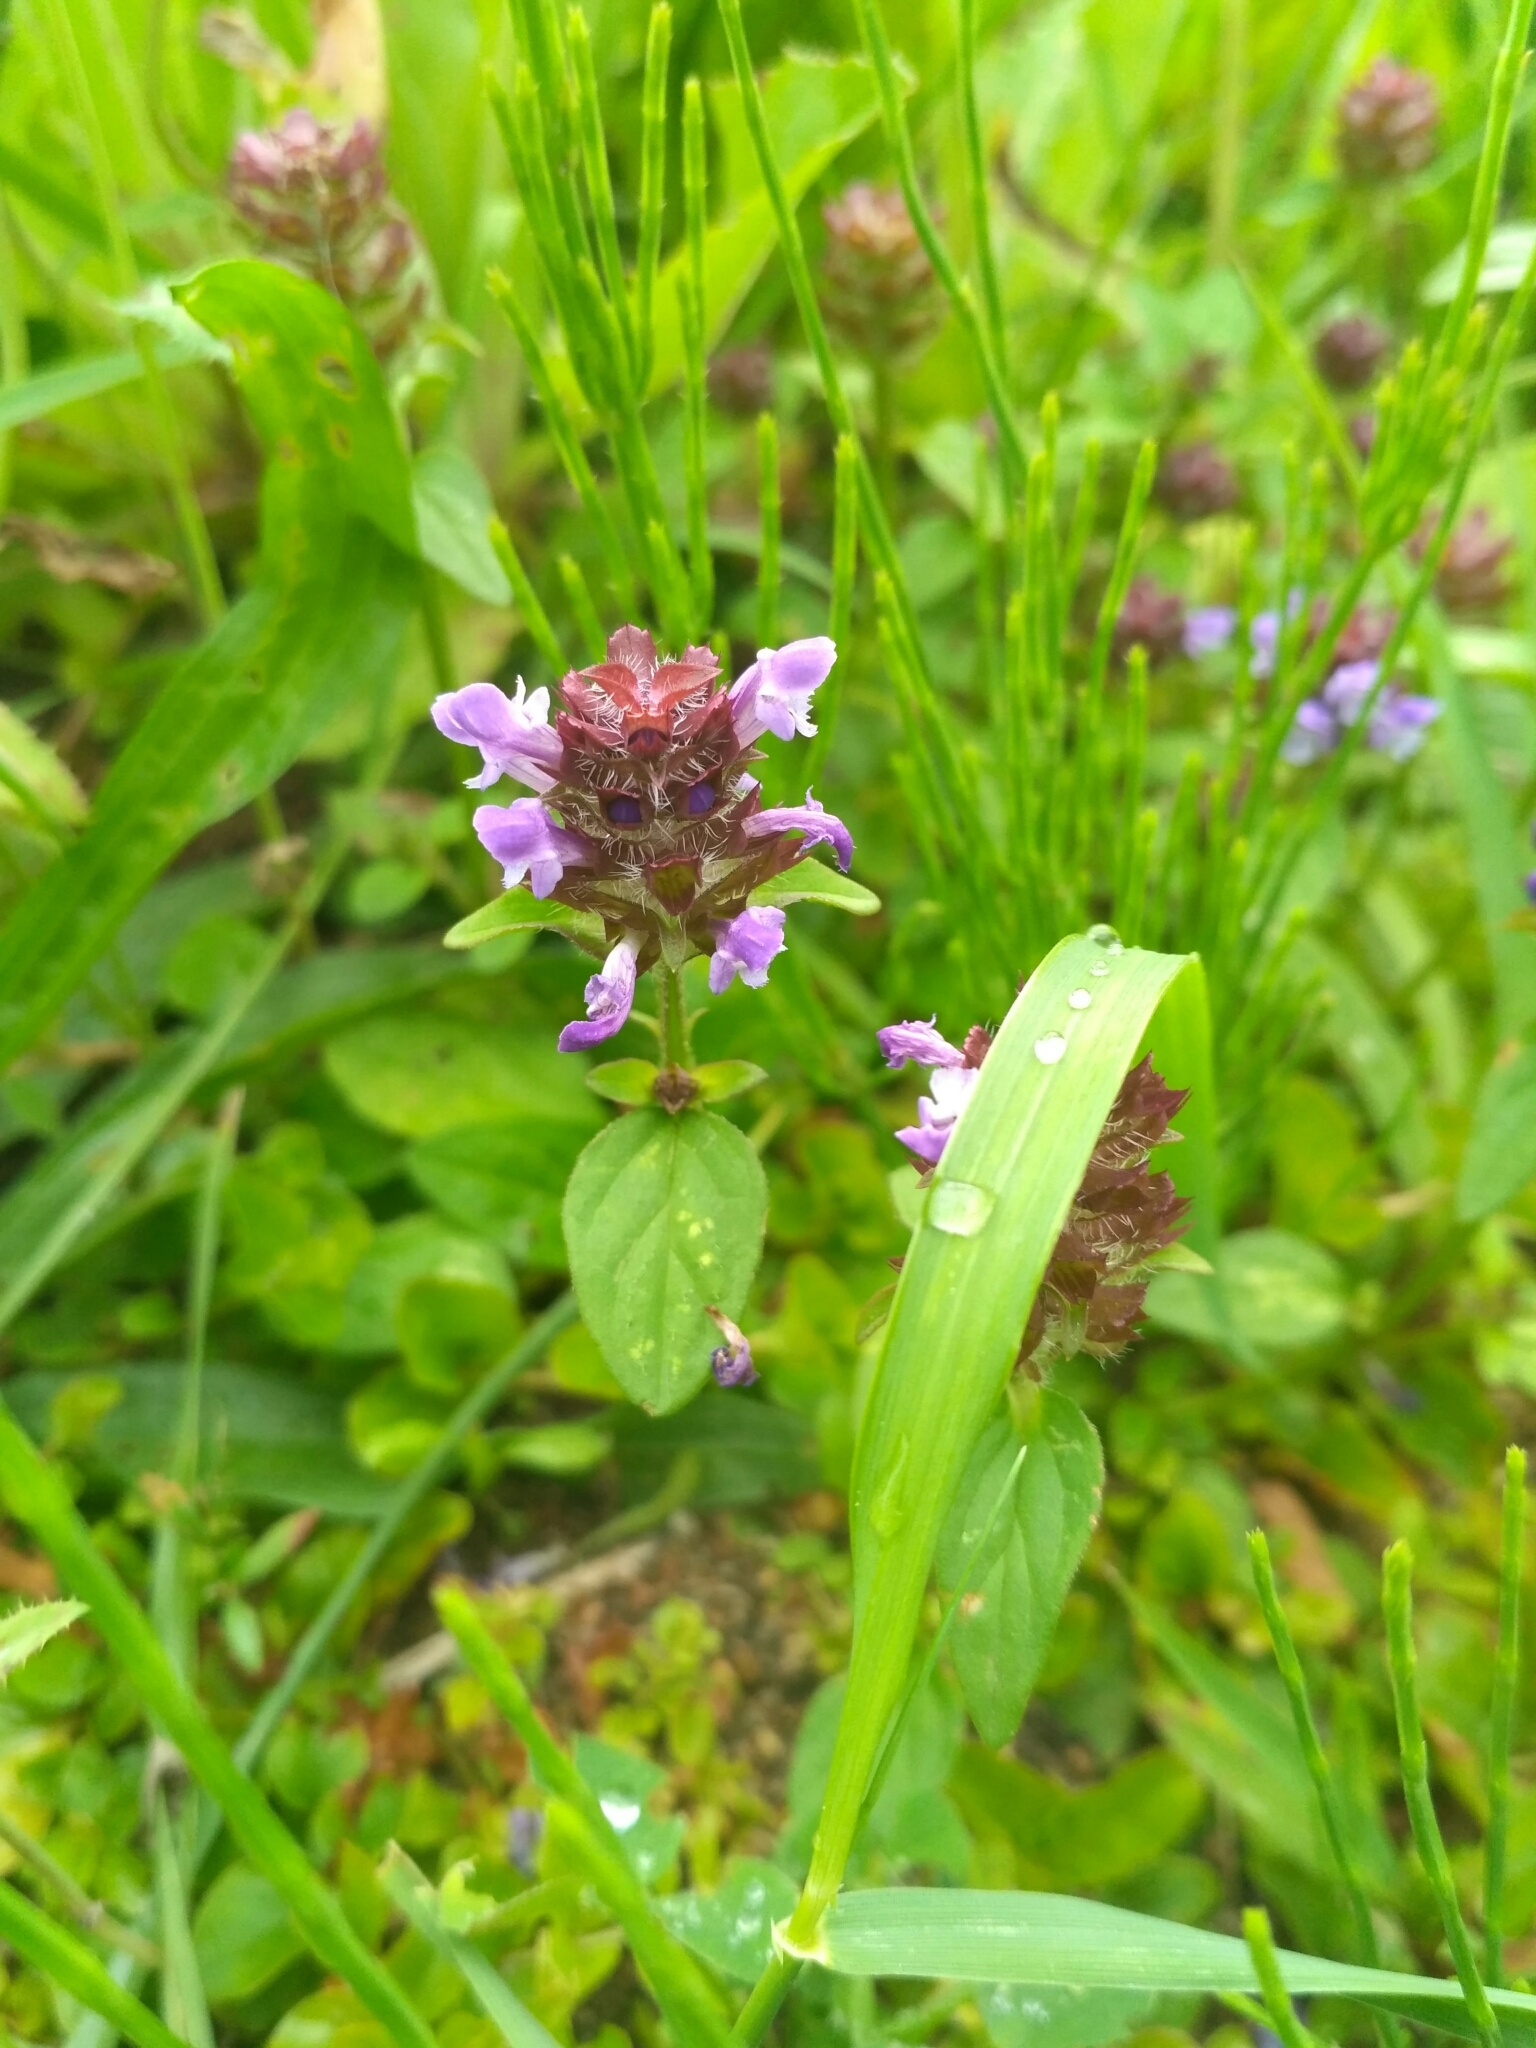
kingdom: Plantae
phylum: Tracheophyta
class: Magnoliopsida
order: Lamiales
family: Lamiaceae
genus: Prunella
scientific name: Prunella vulgaris
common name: Heal-all
